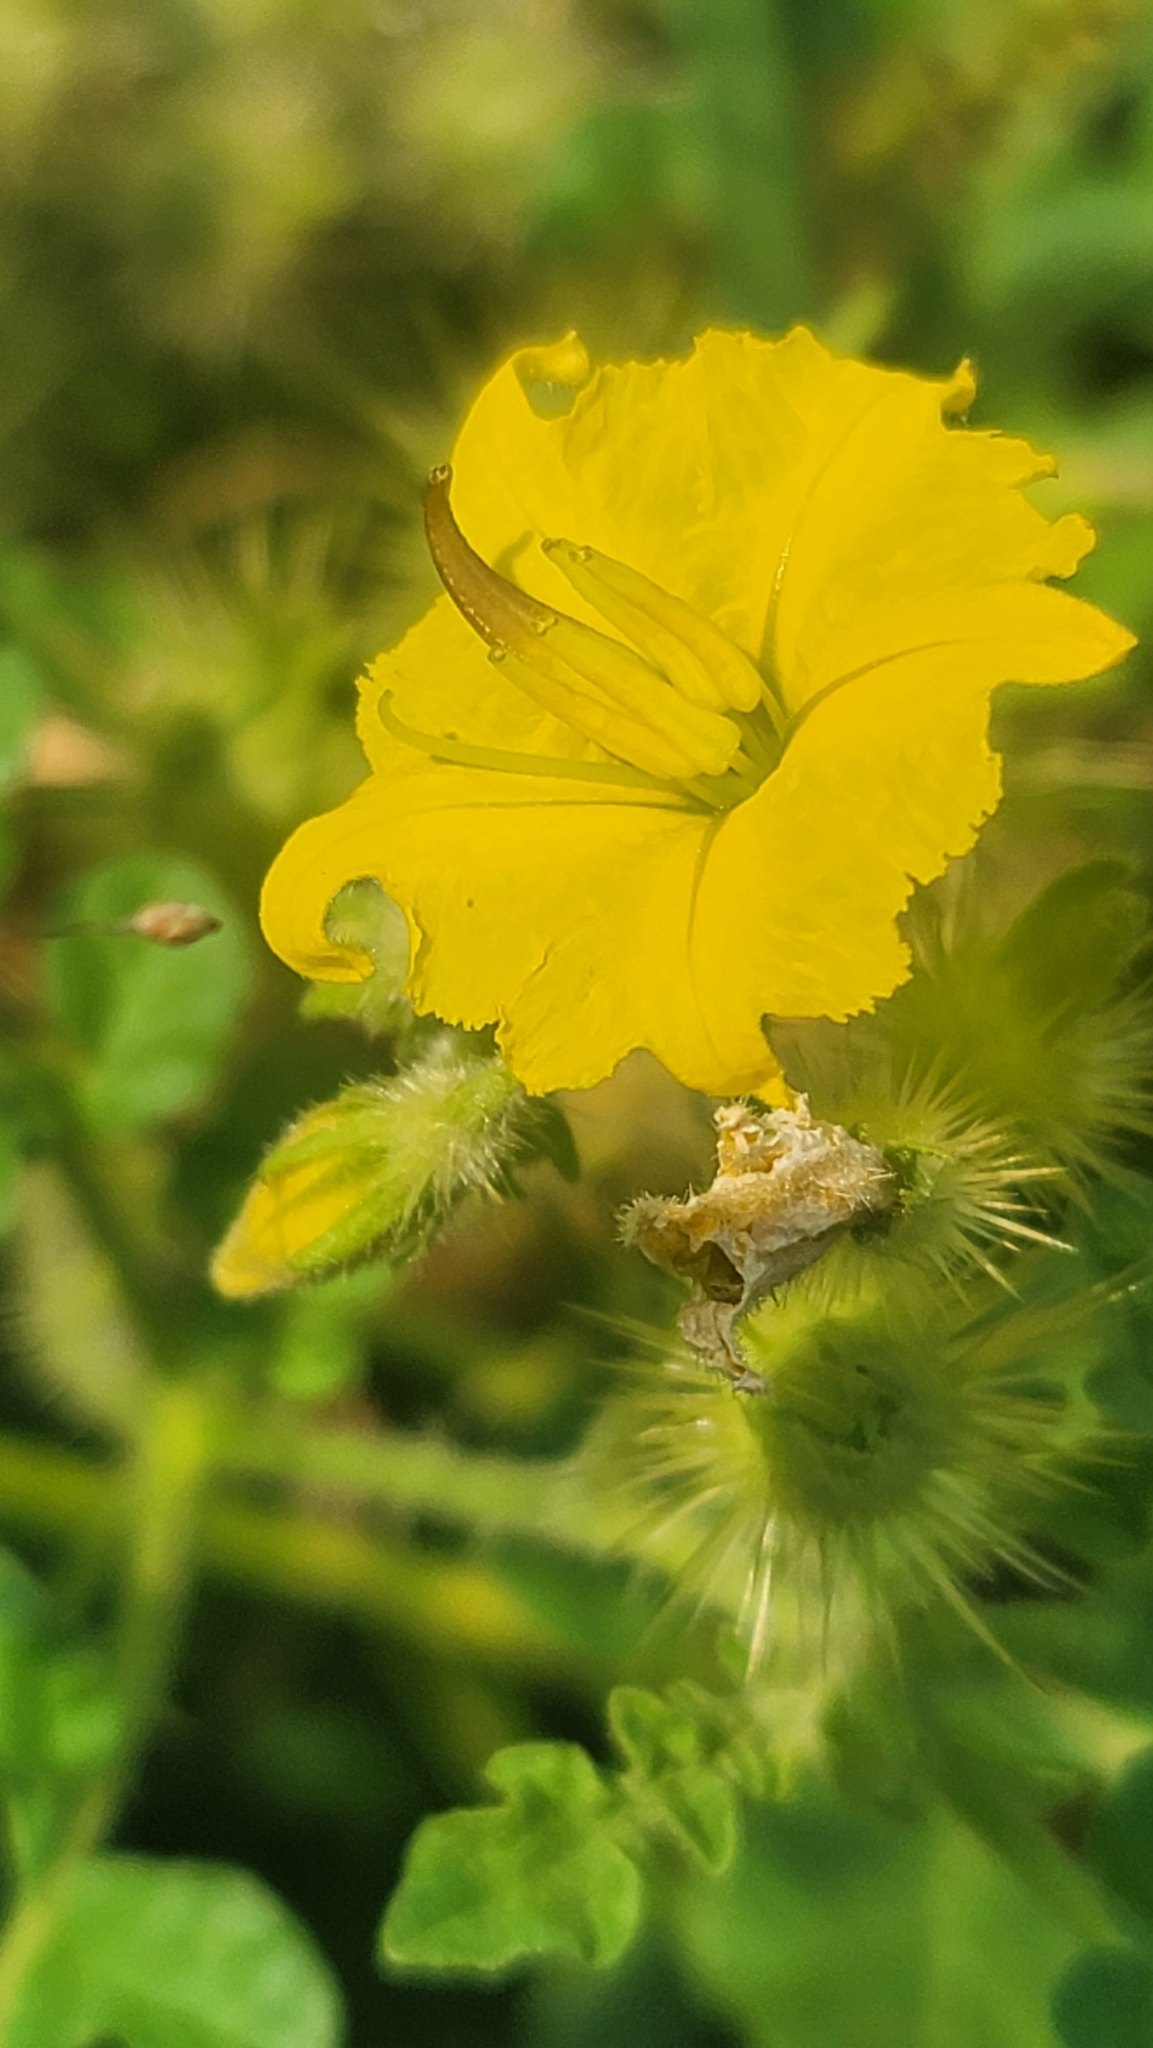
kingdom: Plantae
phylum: Tracheophyta
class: Magnoliopsida
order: Solanales
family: Solanaceae
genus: Solanum
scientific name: Solanum angustifolium
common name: Buffalobur nightshade
